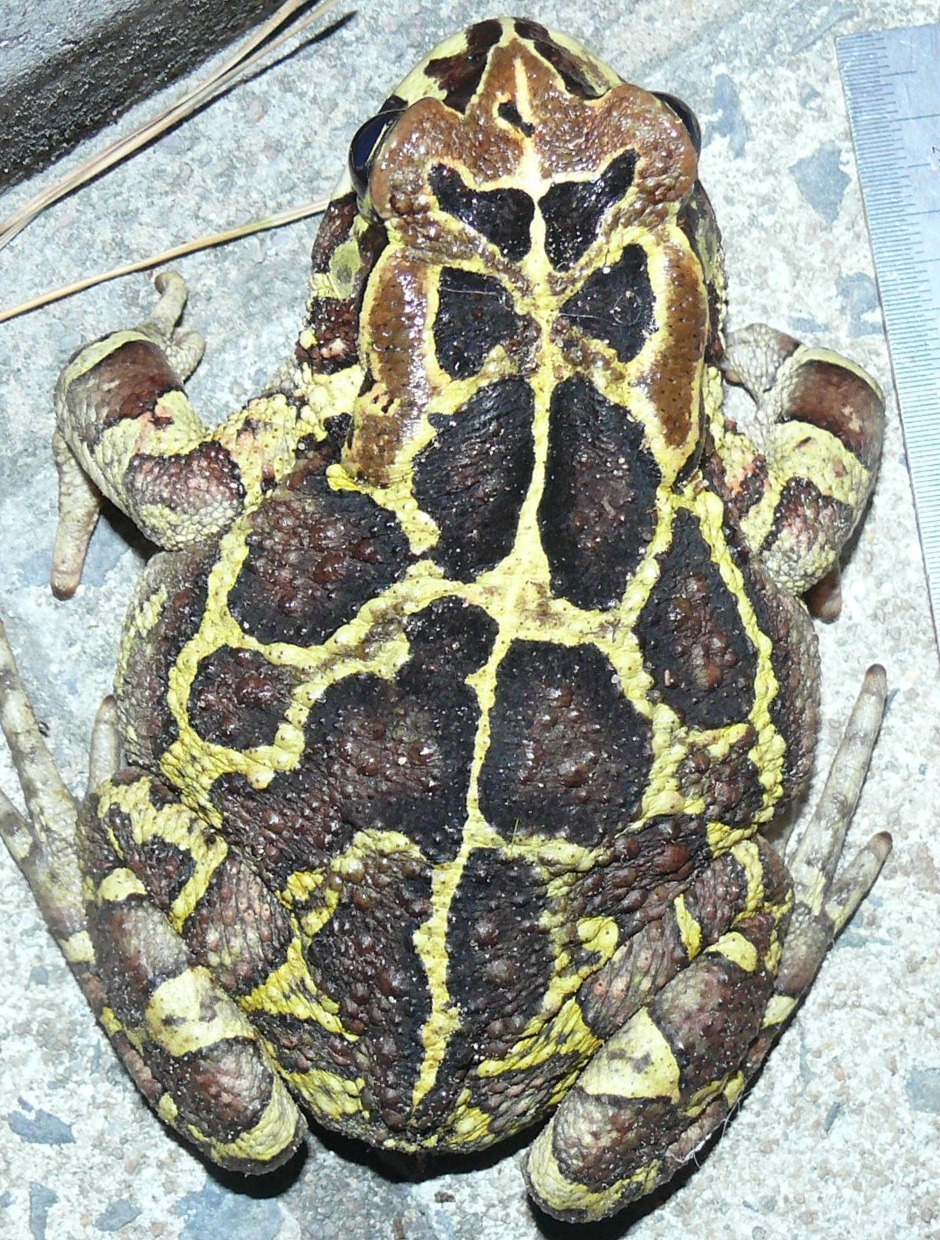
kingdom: Animalia
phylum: Chordata
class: Amphibia
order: Anura
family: Bufonidae
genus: Sclerophrys
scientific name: Sclerophrys pantherina
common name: Panther toad
